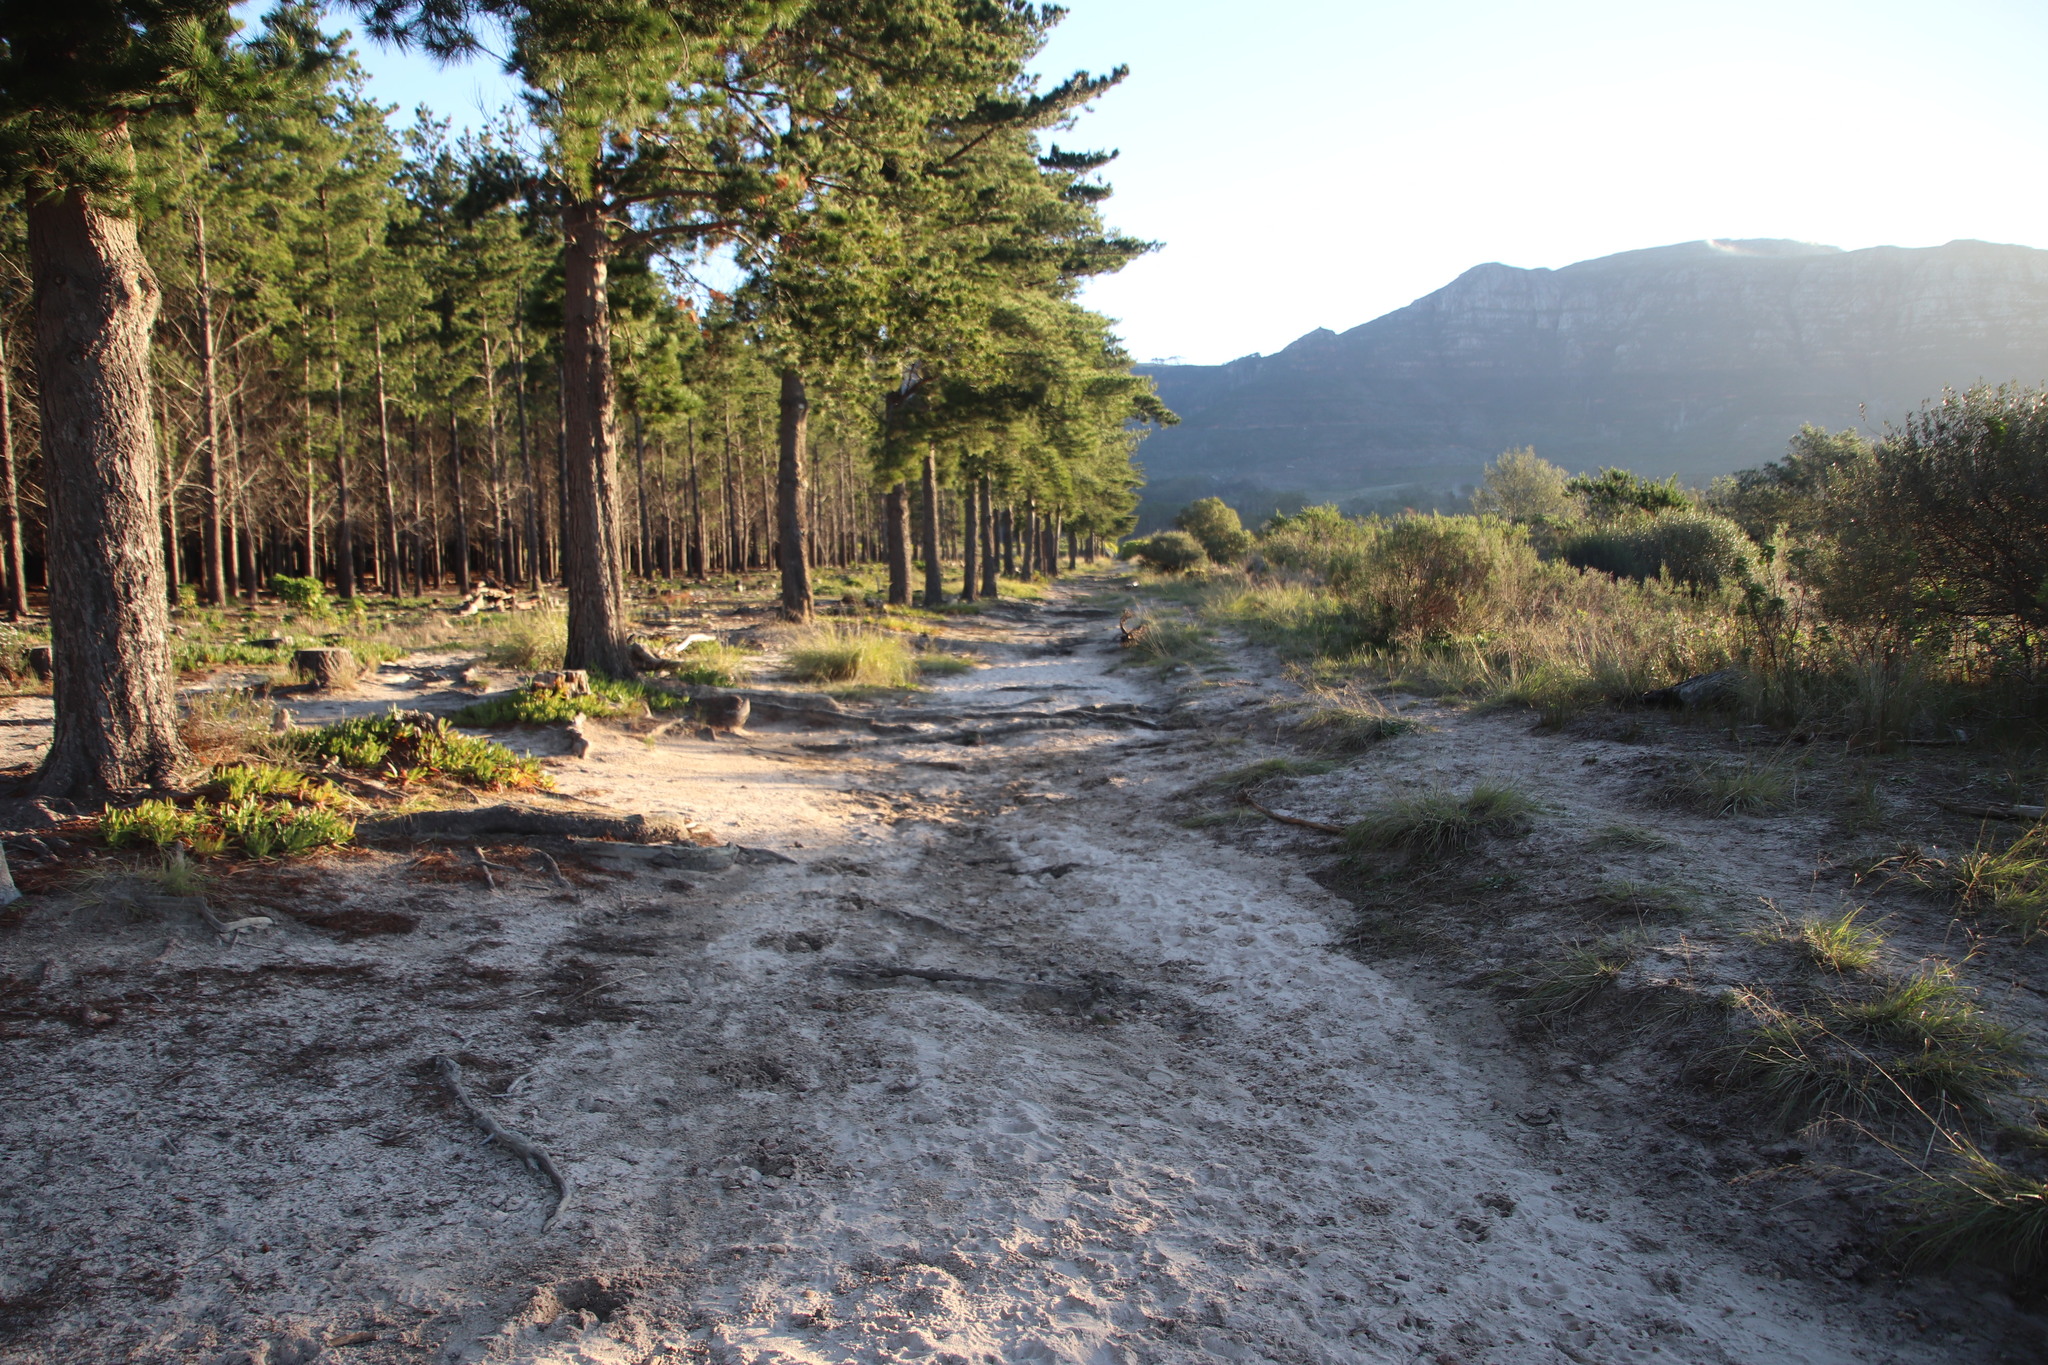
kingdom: Plantae
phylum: Tracheophyta
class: Magnoliopsida
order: Caryophyllales
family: Aizoaceae
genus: Carpobrotus
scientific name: Carpobrotus edulis
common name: Hottentot-fig
